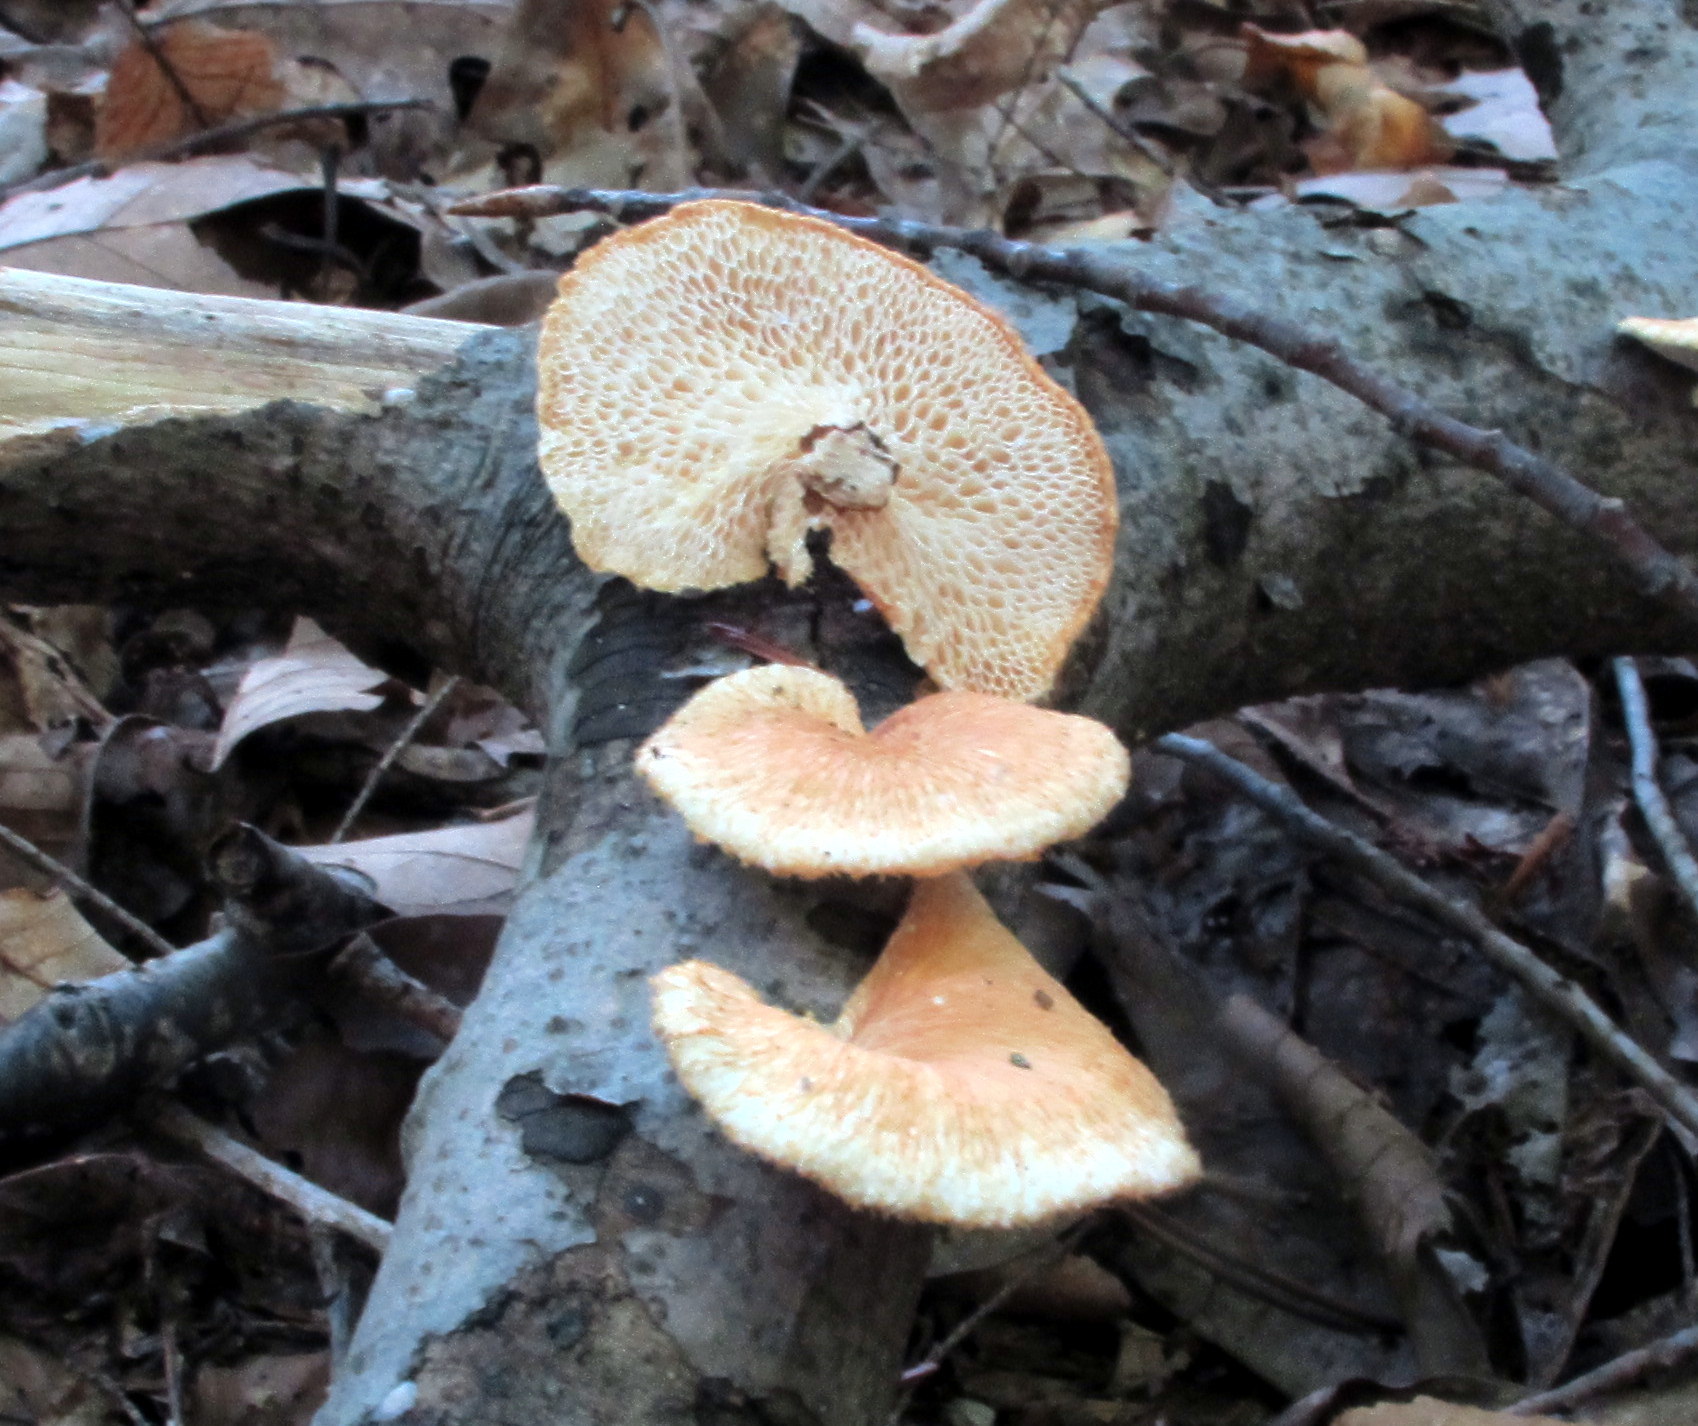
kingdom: Fungi
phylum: Basidiomycota
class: Agaricomycetes
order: Polyporales
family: Polyporaceae
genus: Neofavolus
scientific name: Neofavolus alveolaris
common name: Hexagonal-pored polypore
